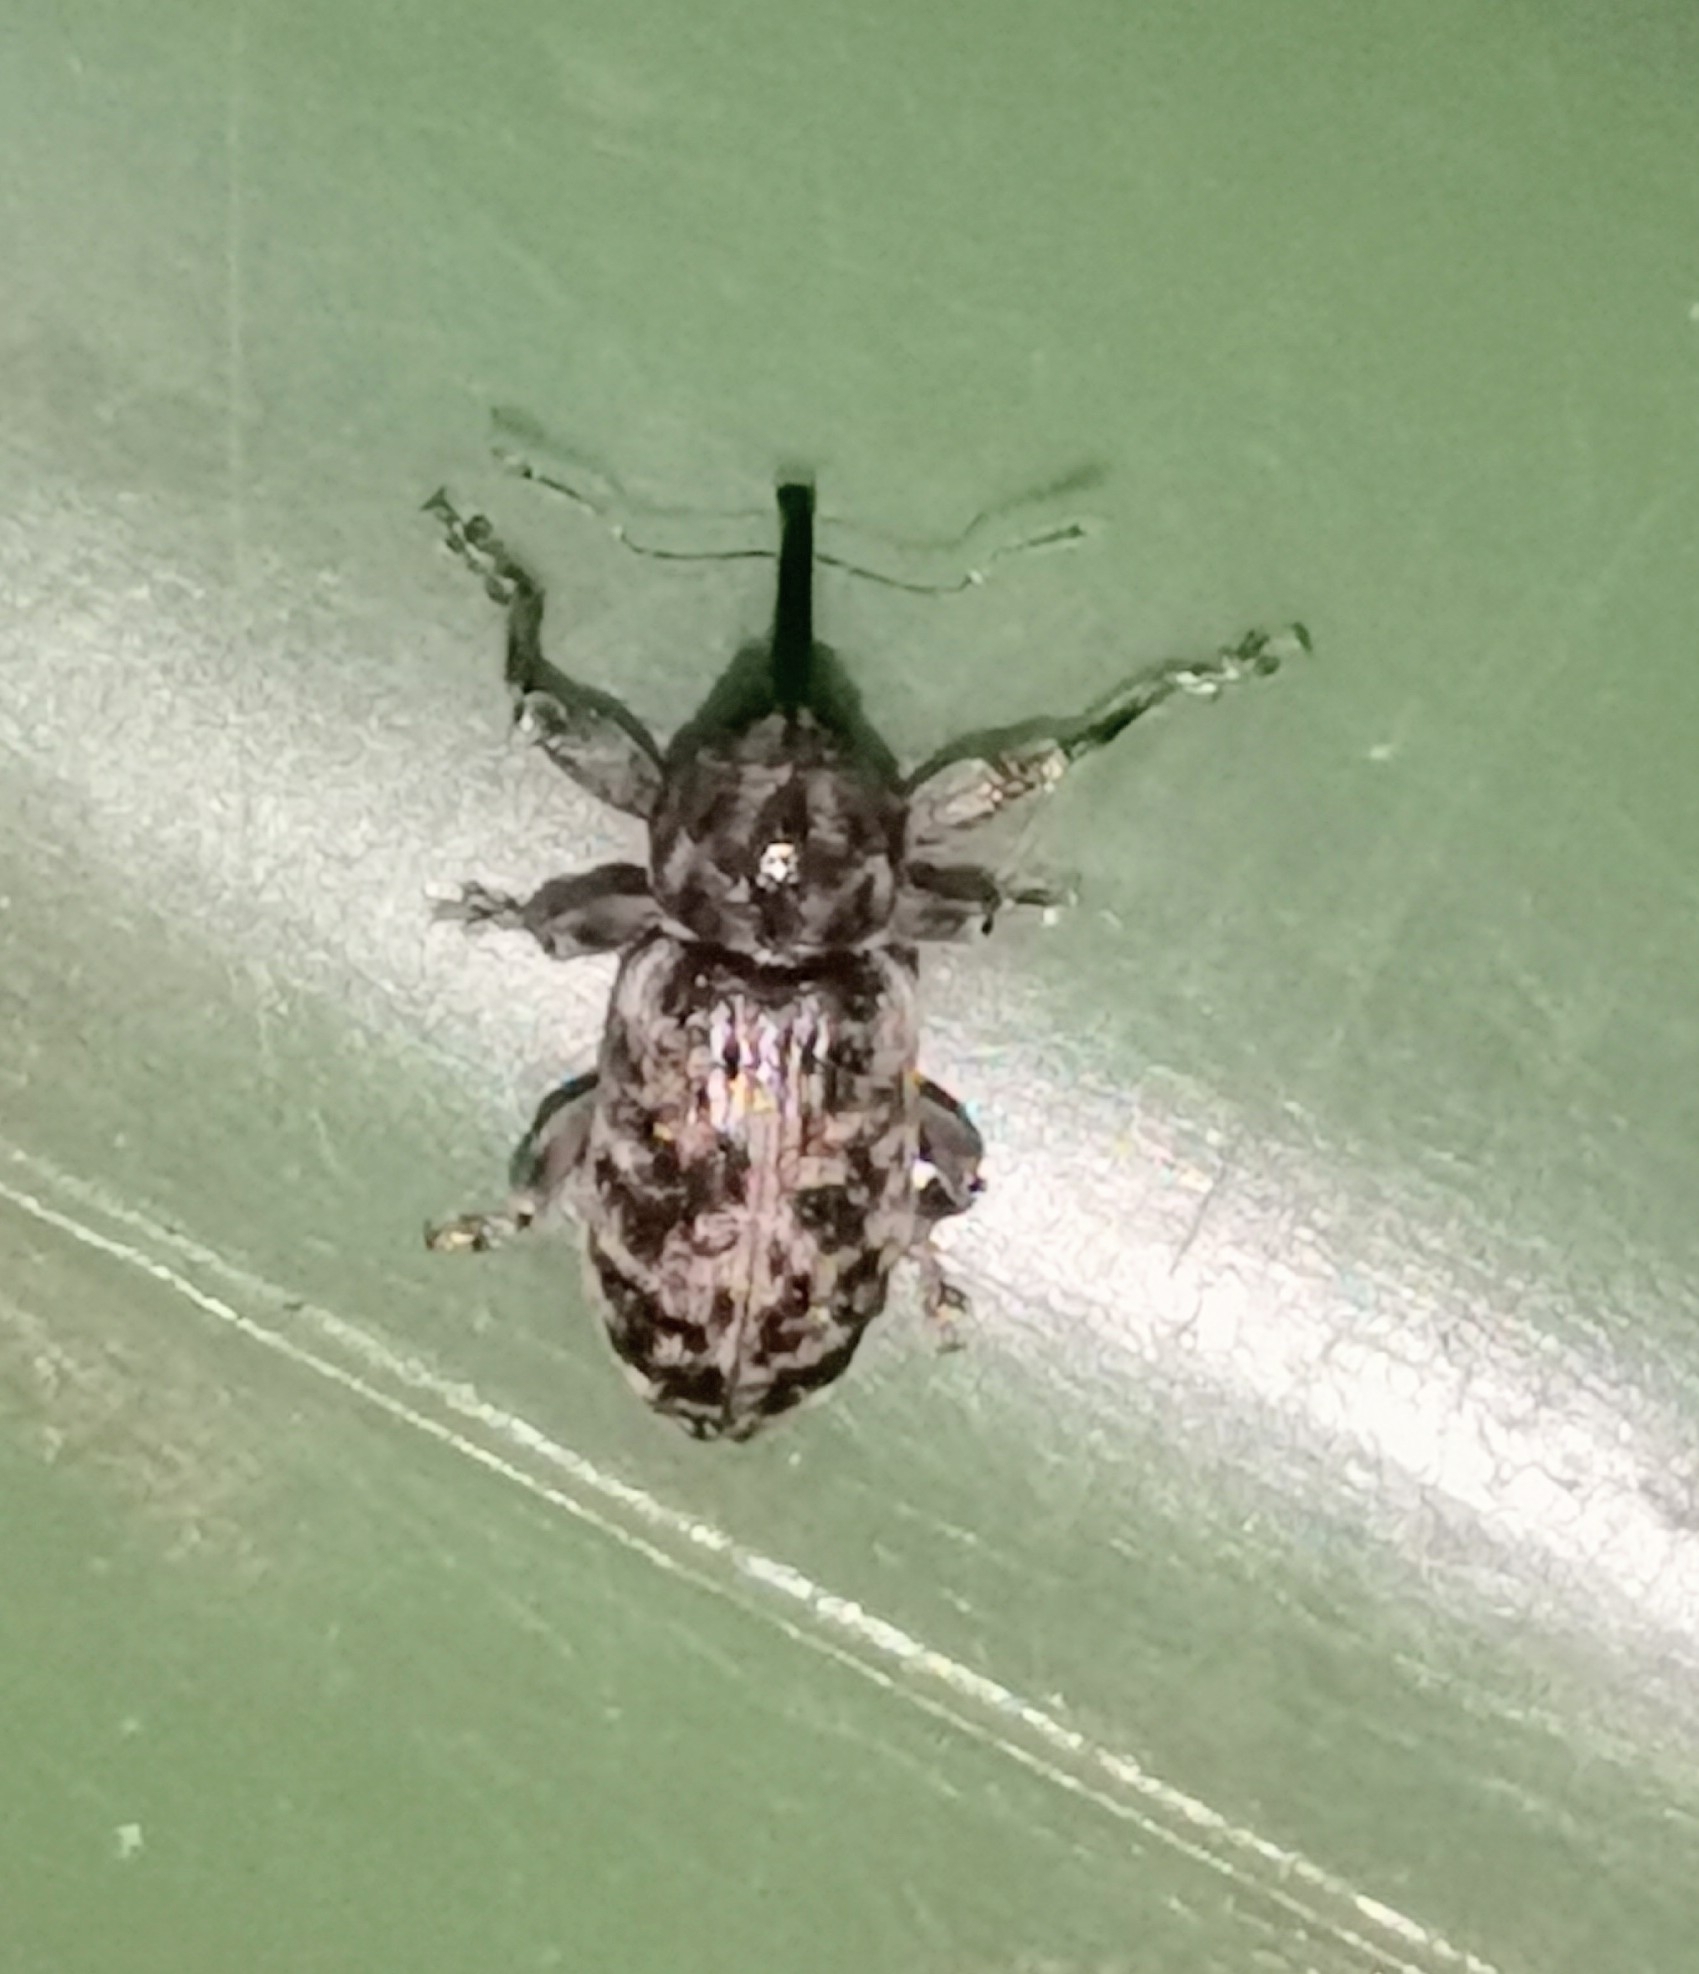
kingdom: Animalia
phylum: Arthropoda
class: Insecta
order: Coleoptera
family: Curculionidae
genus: Dorytomus
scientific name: Dorytomus tremulae
